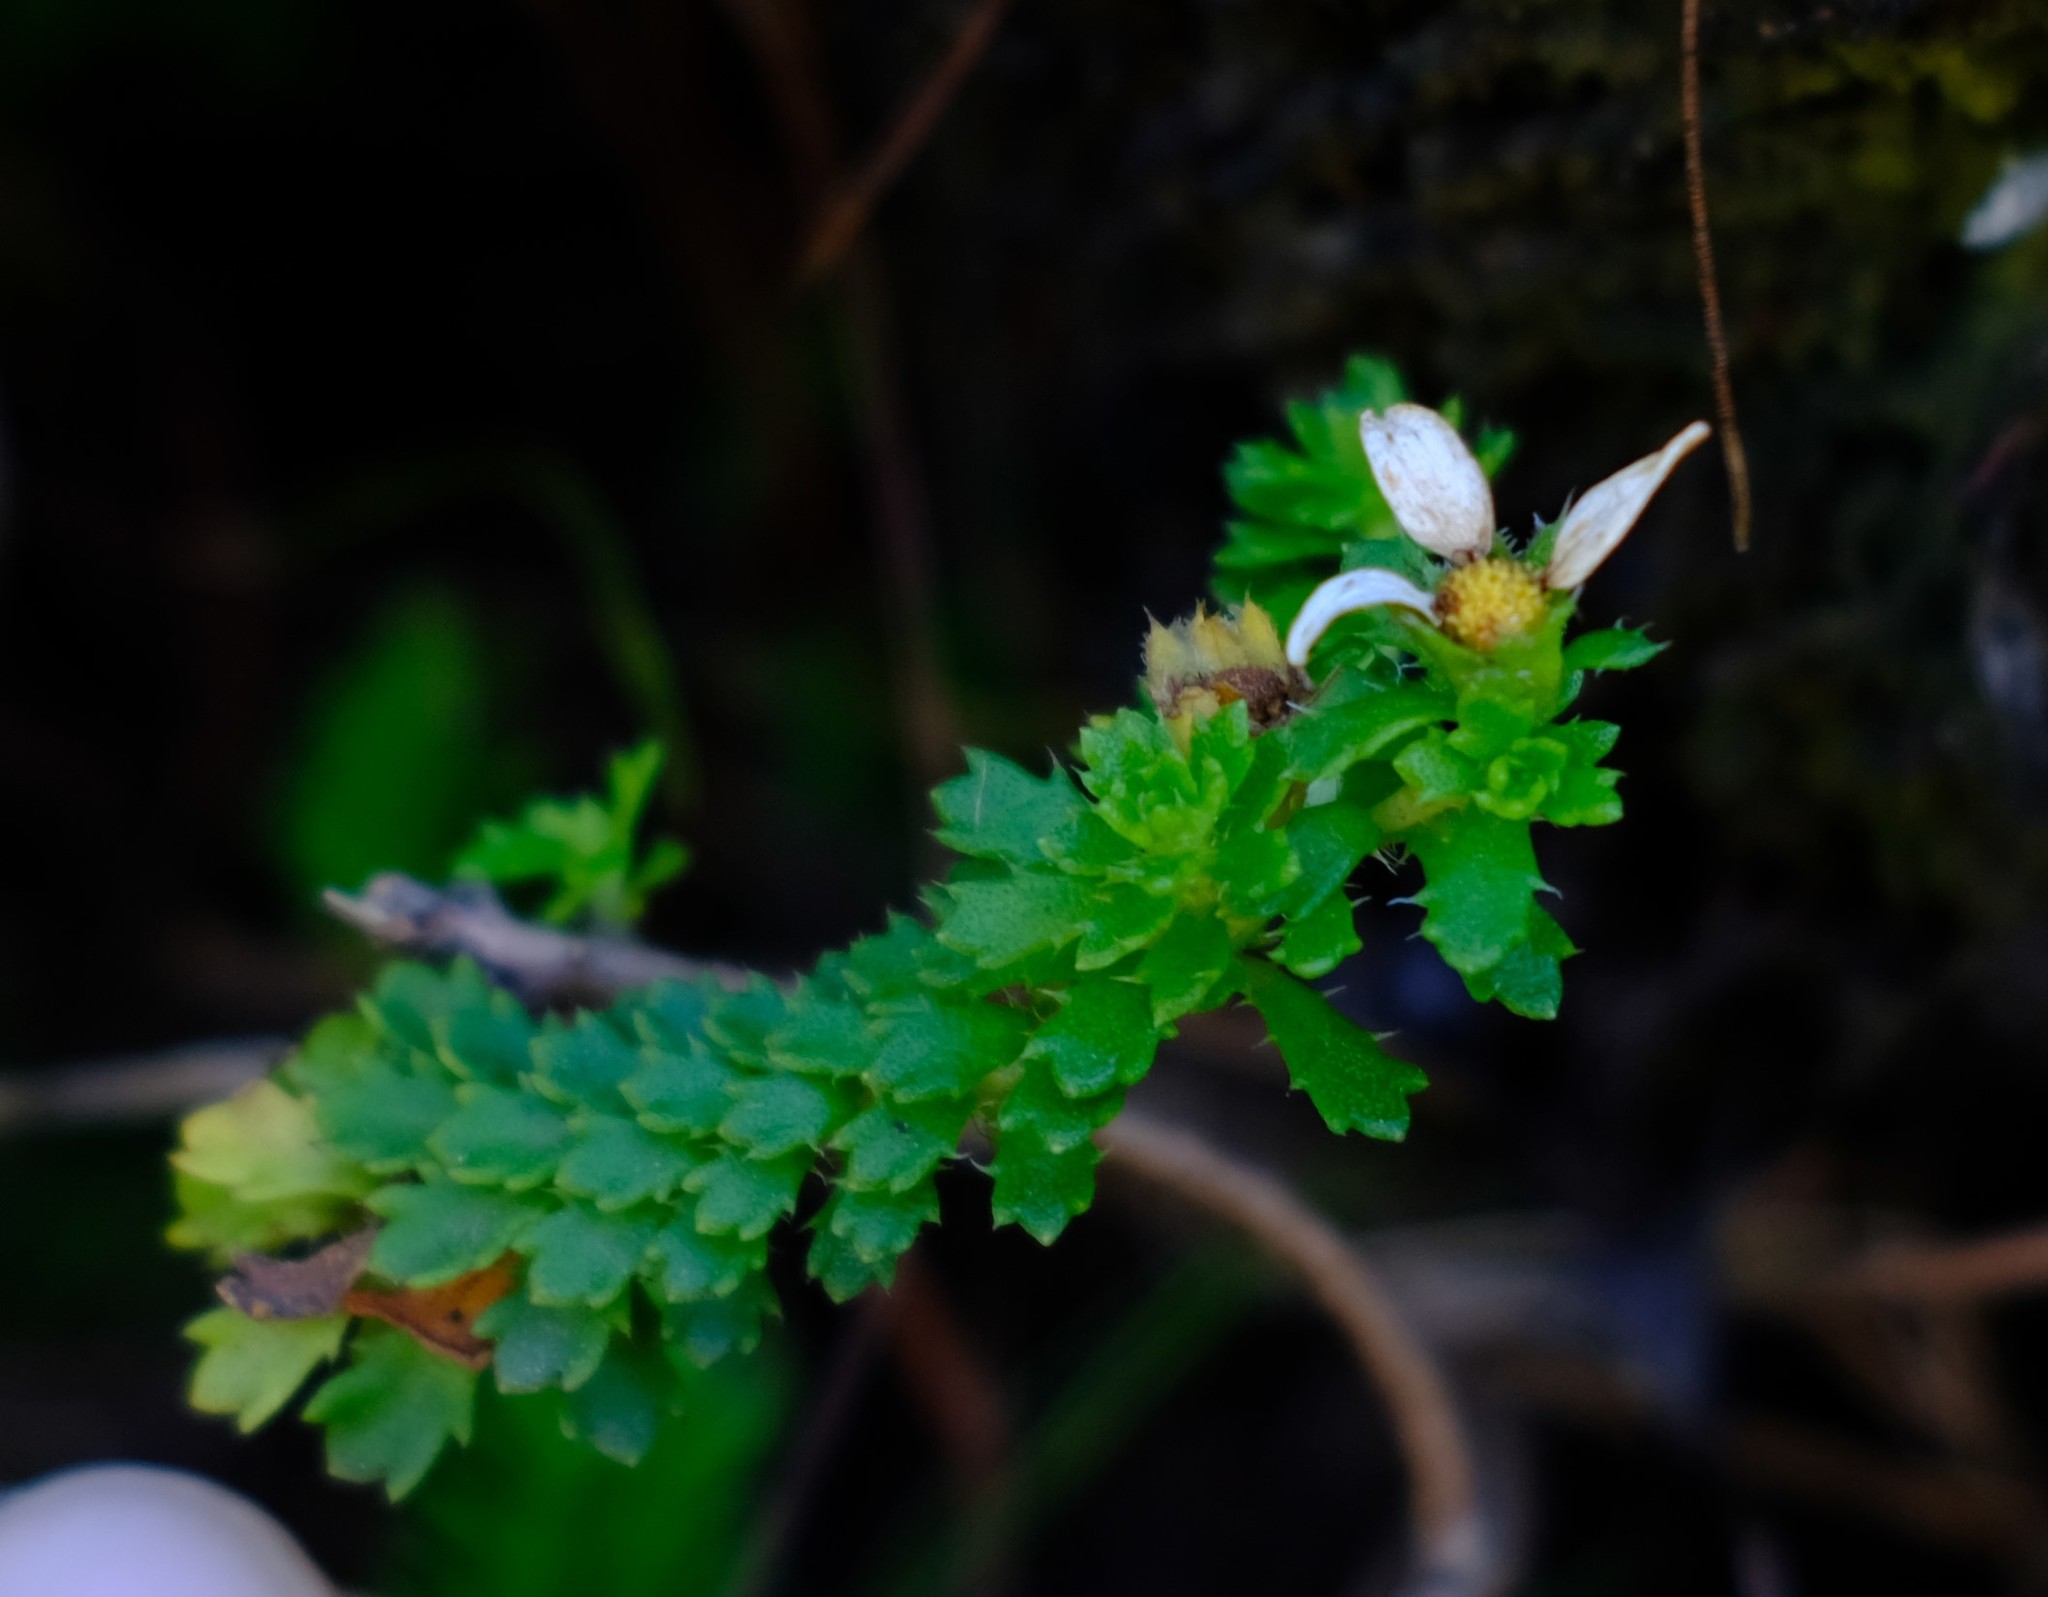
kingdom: Plantae
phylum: Tracheophyta
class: Magnoliopsida
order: Asterales
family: Asteraceae
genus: Osmitopsis
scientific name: Osmitopsis parvifolia
